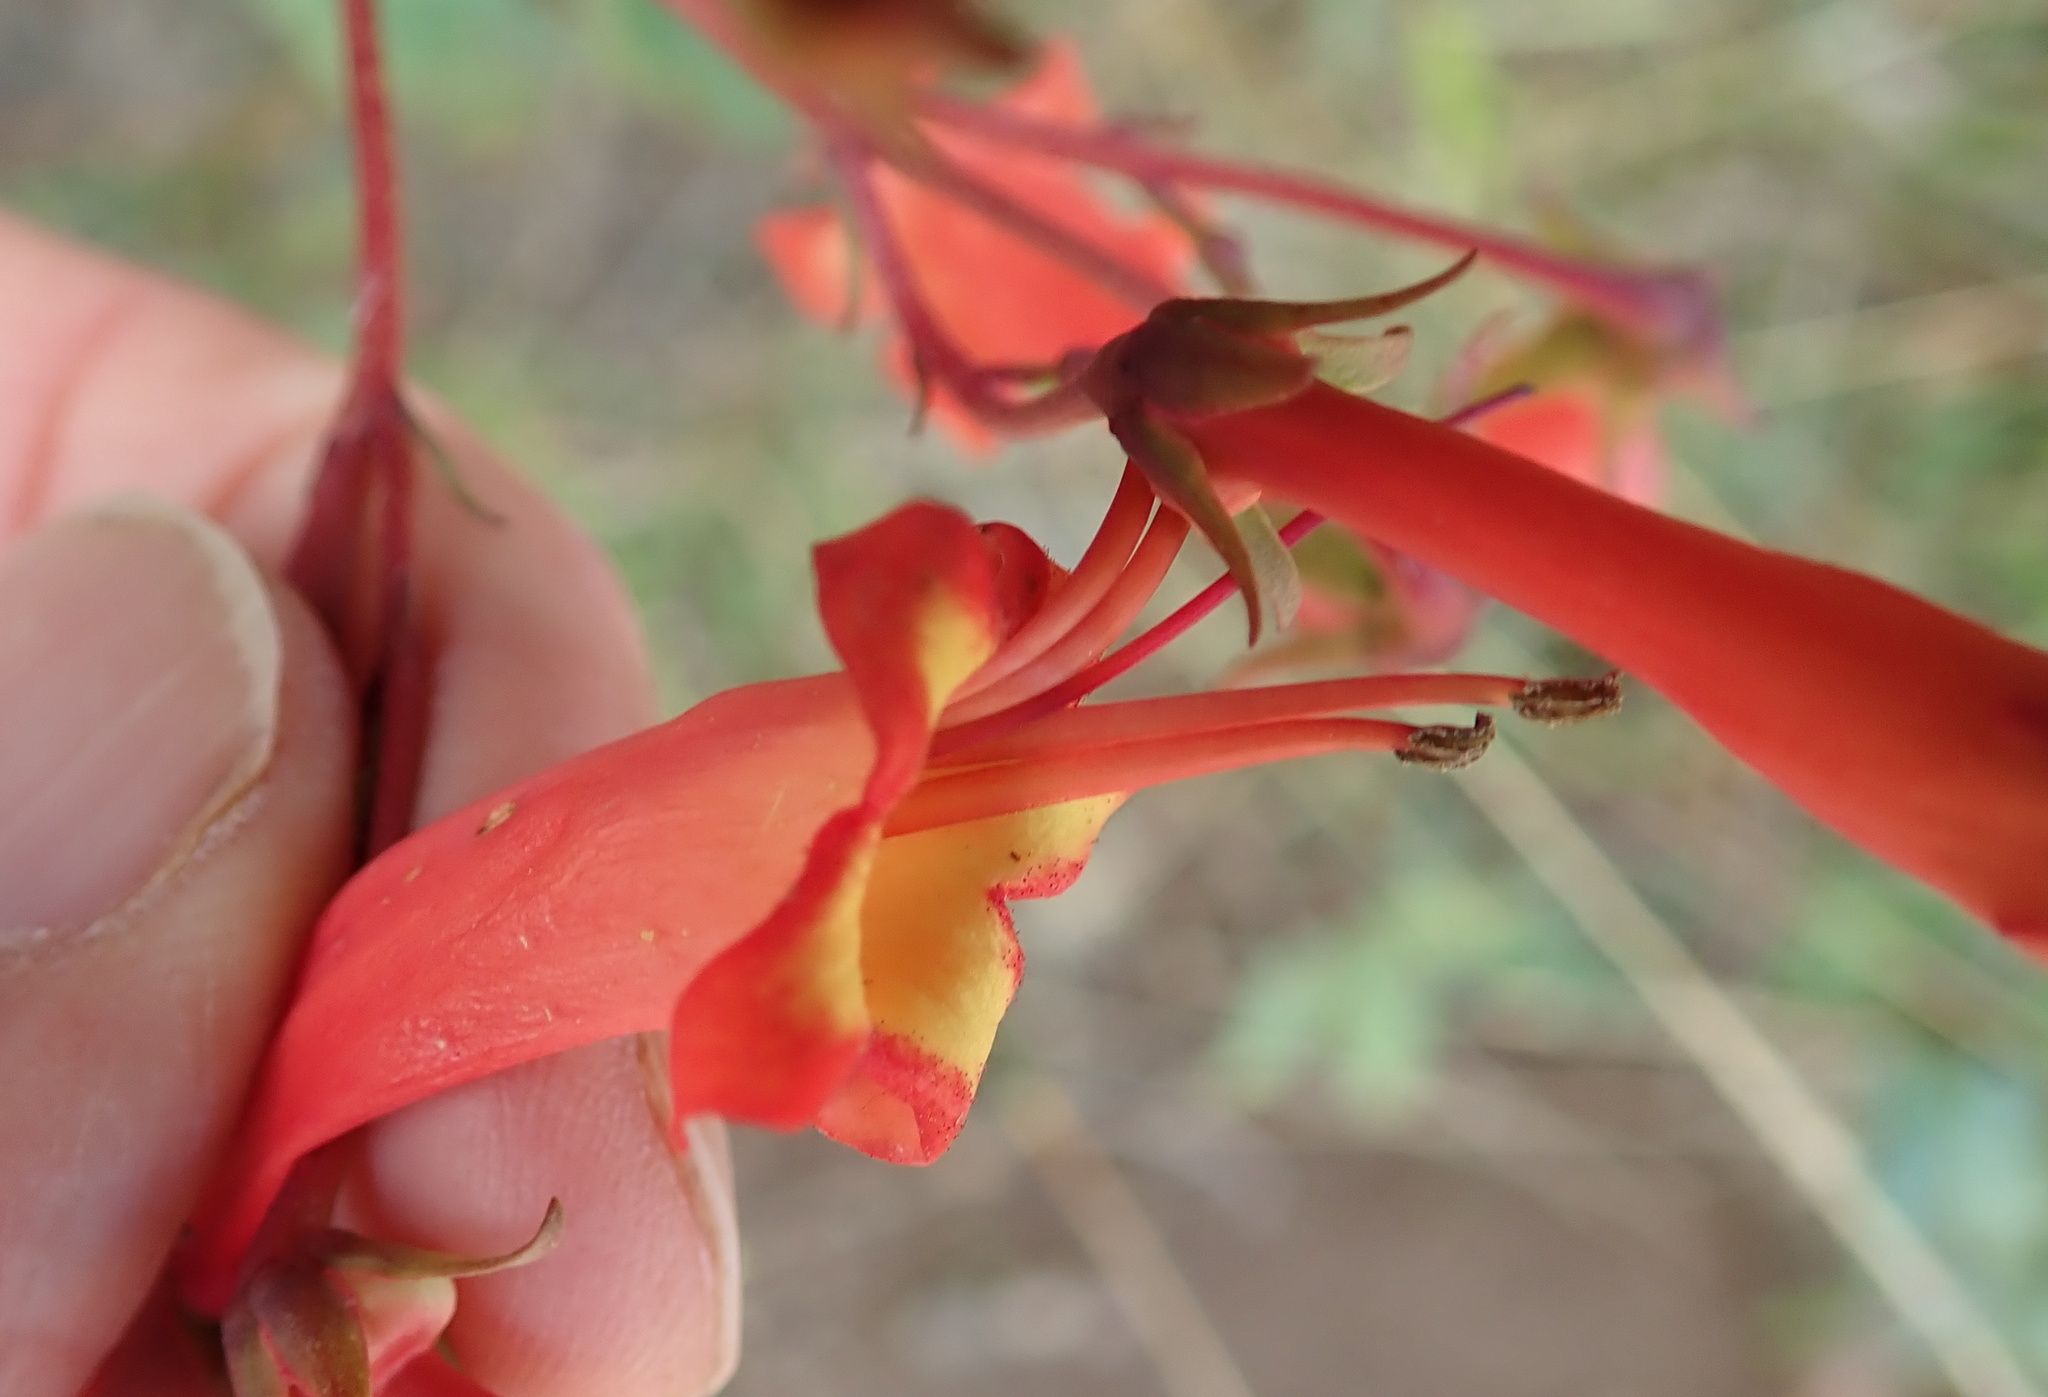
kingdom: Plantae
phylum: Tracheophyta
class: Magnoliopsida
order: Lamiales
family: Scrophulariaceae
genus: Phygelius
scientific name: Phygelius capensis
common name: Cape figwort
